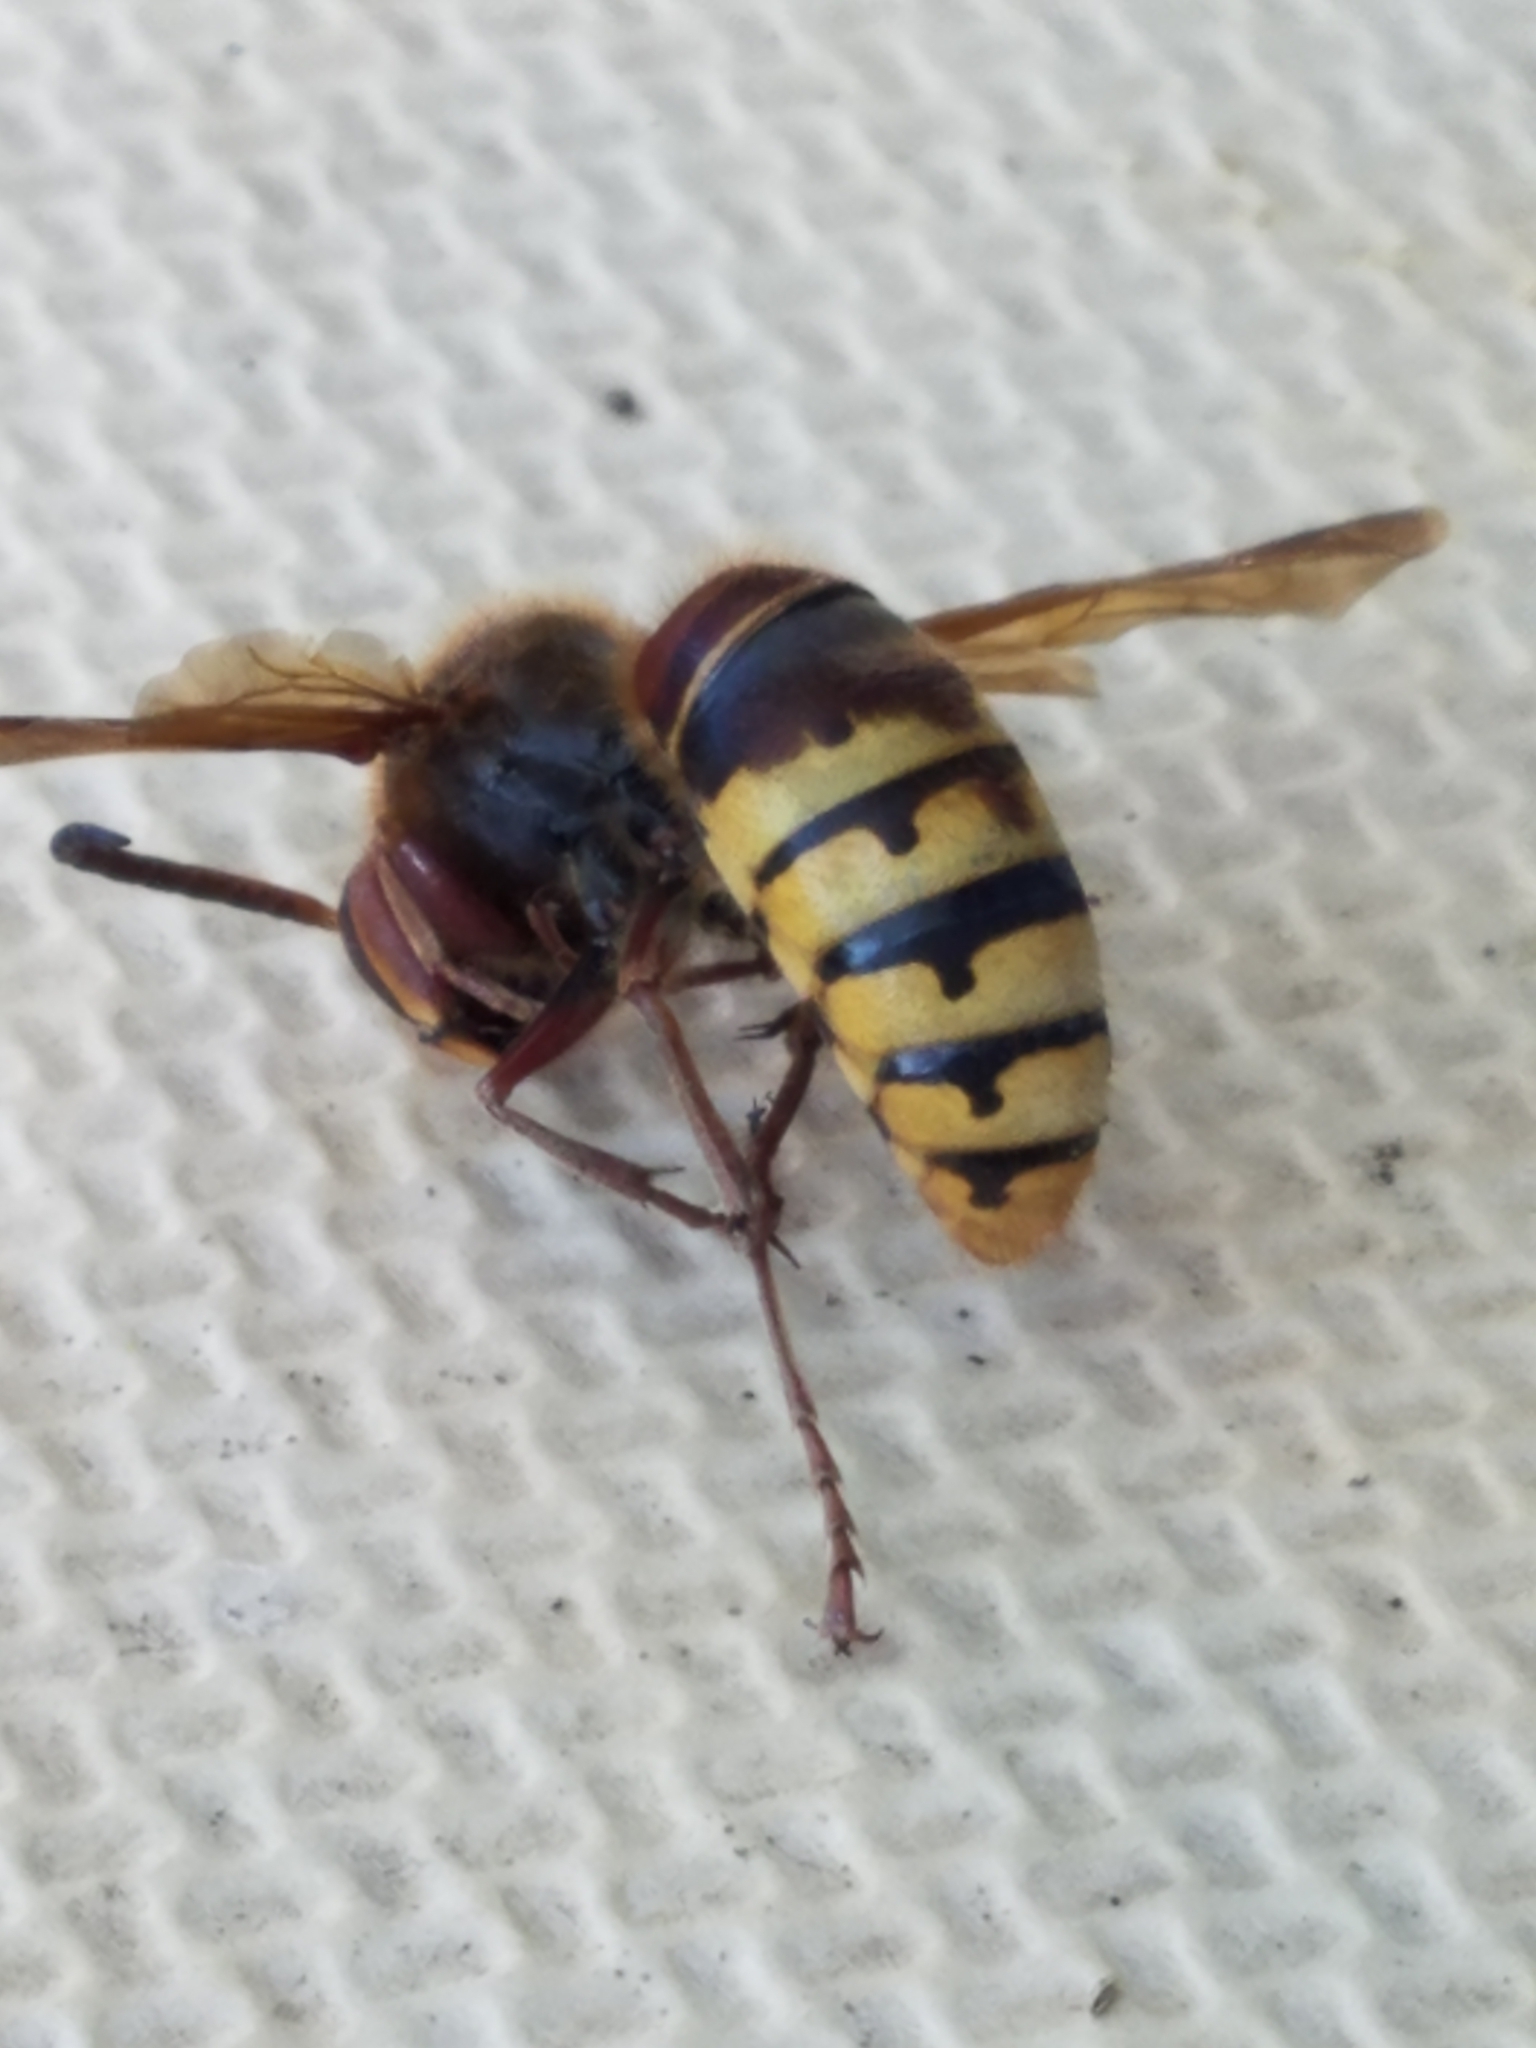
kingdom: Animalia
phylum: Arthropoda
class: Insecta
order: Hymenoptera
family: Vespidae
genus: Vespa
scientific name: Vespa crabro
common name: Hornet
